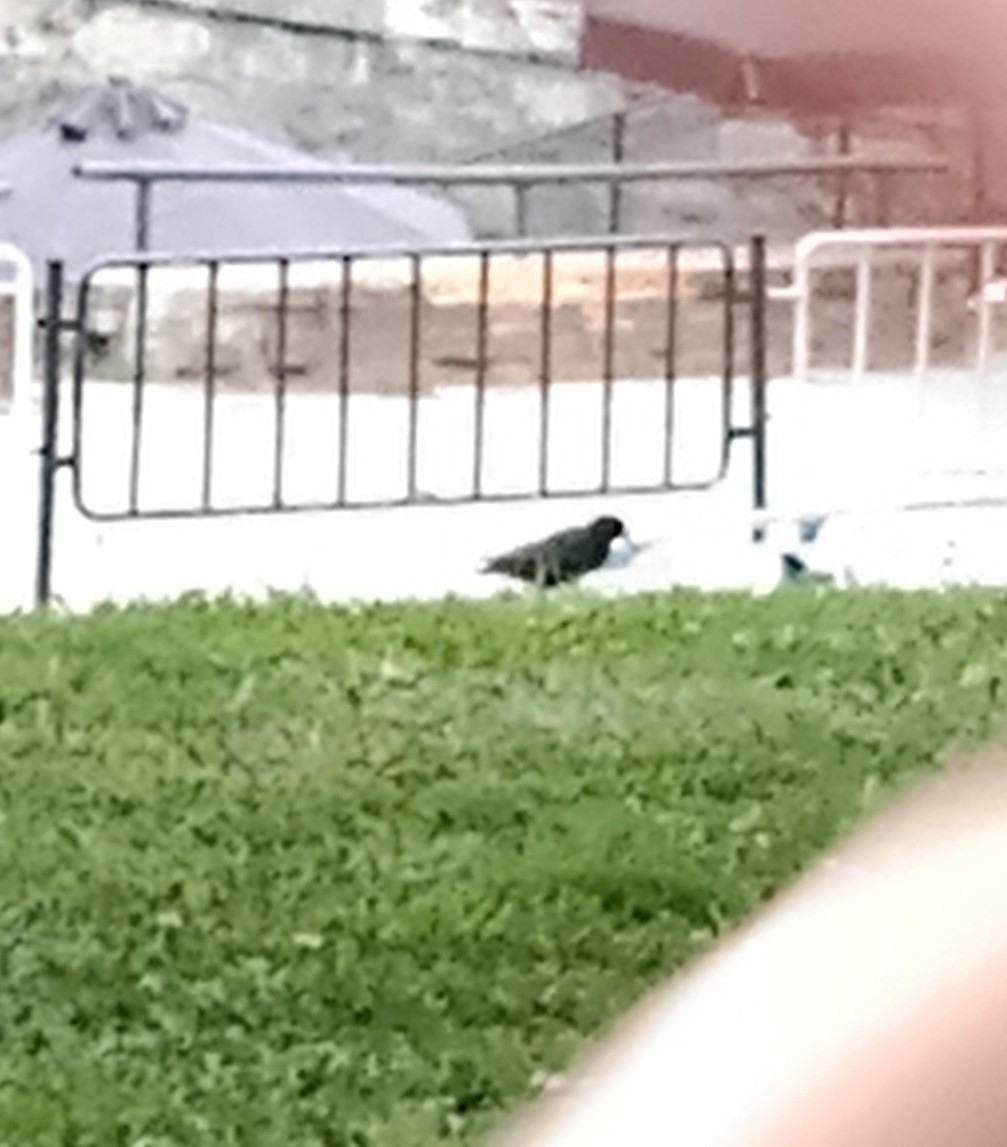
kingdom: Animalia
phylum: Chordata
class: Aves
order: Passeriformes
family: Sturnidae
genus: Sturnus
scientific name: Sturnus vulgaris
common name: Common starling
